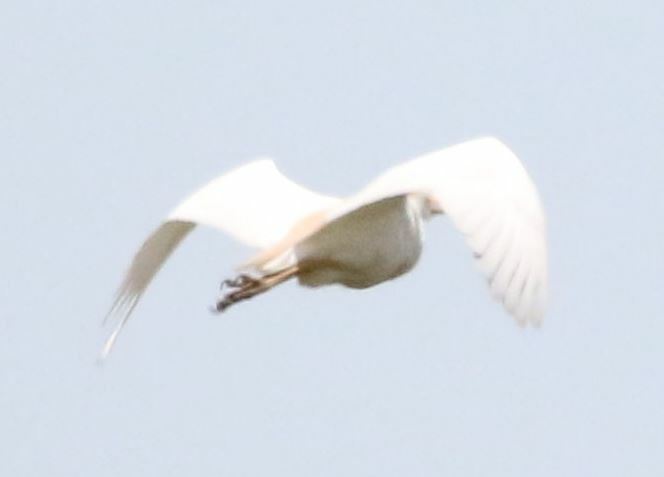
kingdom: Animalia
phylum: Chordata
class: Aves
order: Pelecaniformes
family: Ardeidae
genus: Bubulcus
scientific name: Bubulcus ibis
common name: Cattle egret
